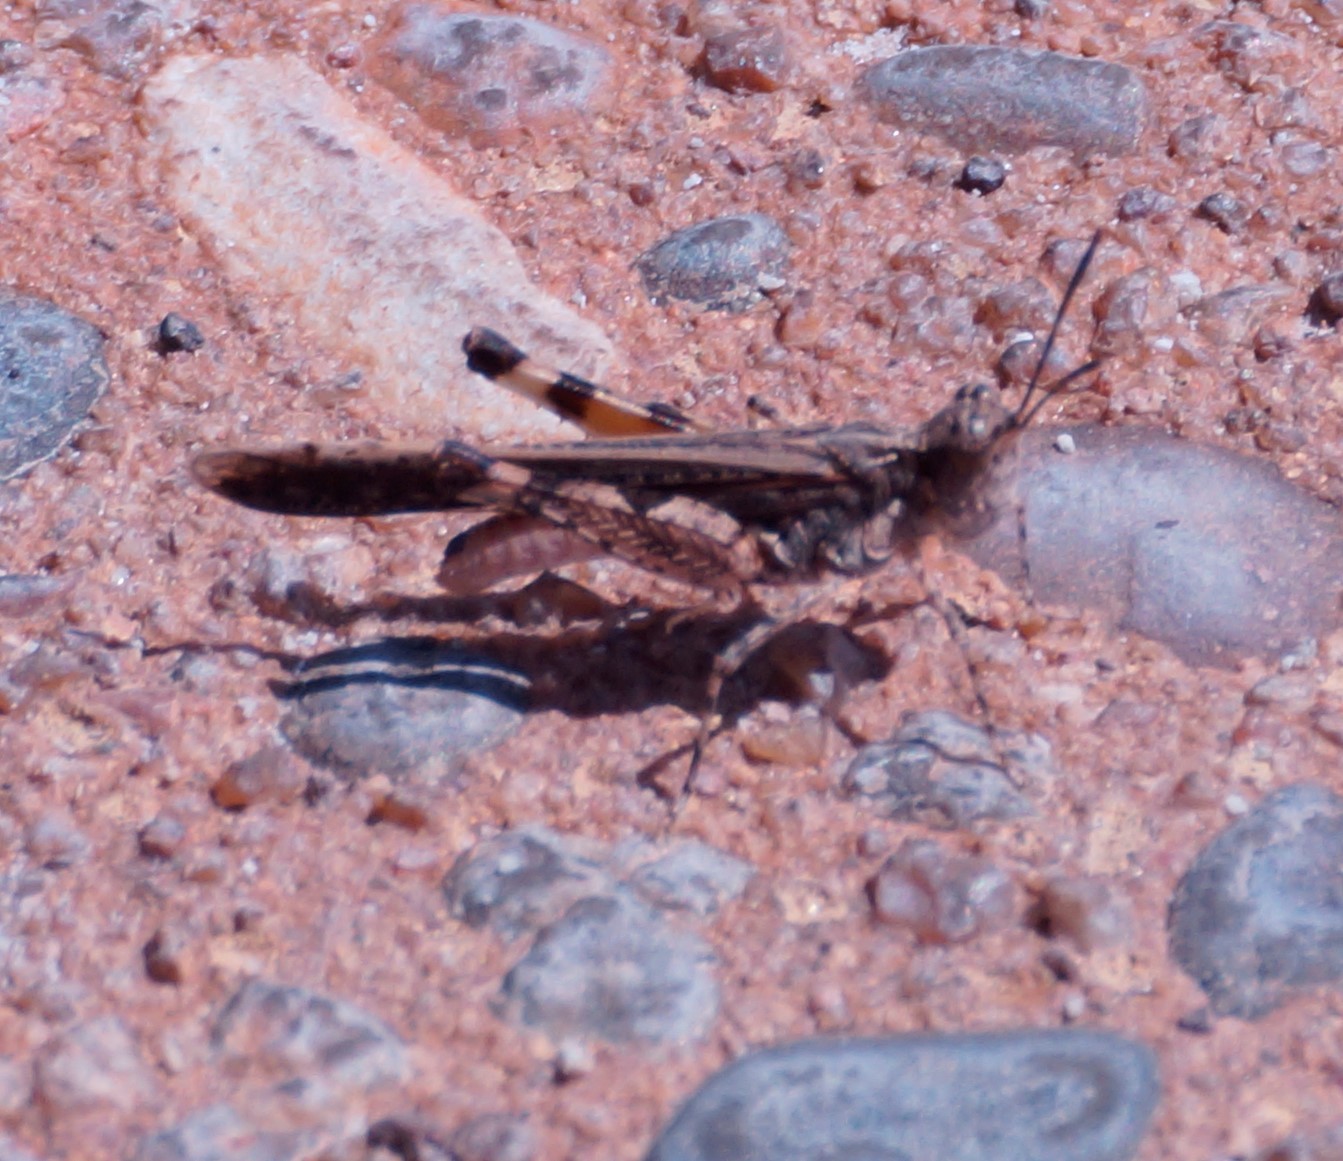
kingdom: Animalia
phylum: Arthropoda
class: Insecta
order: Orthoptera
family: Acrididae
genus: Pycnostictus
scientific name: Pycnostictus seriatus
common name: Common bandwing
